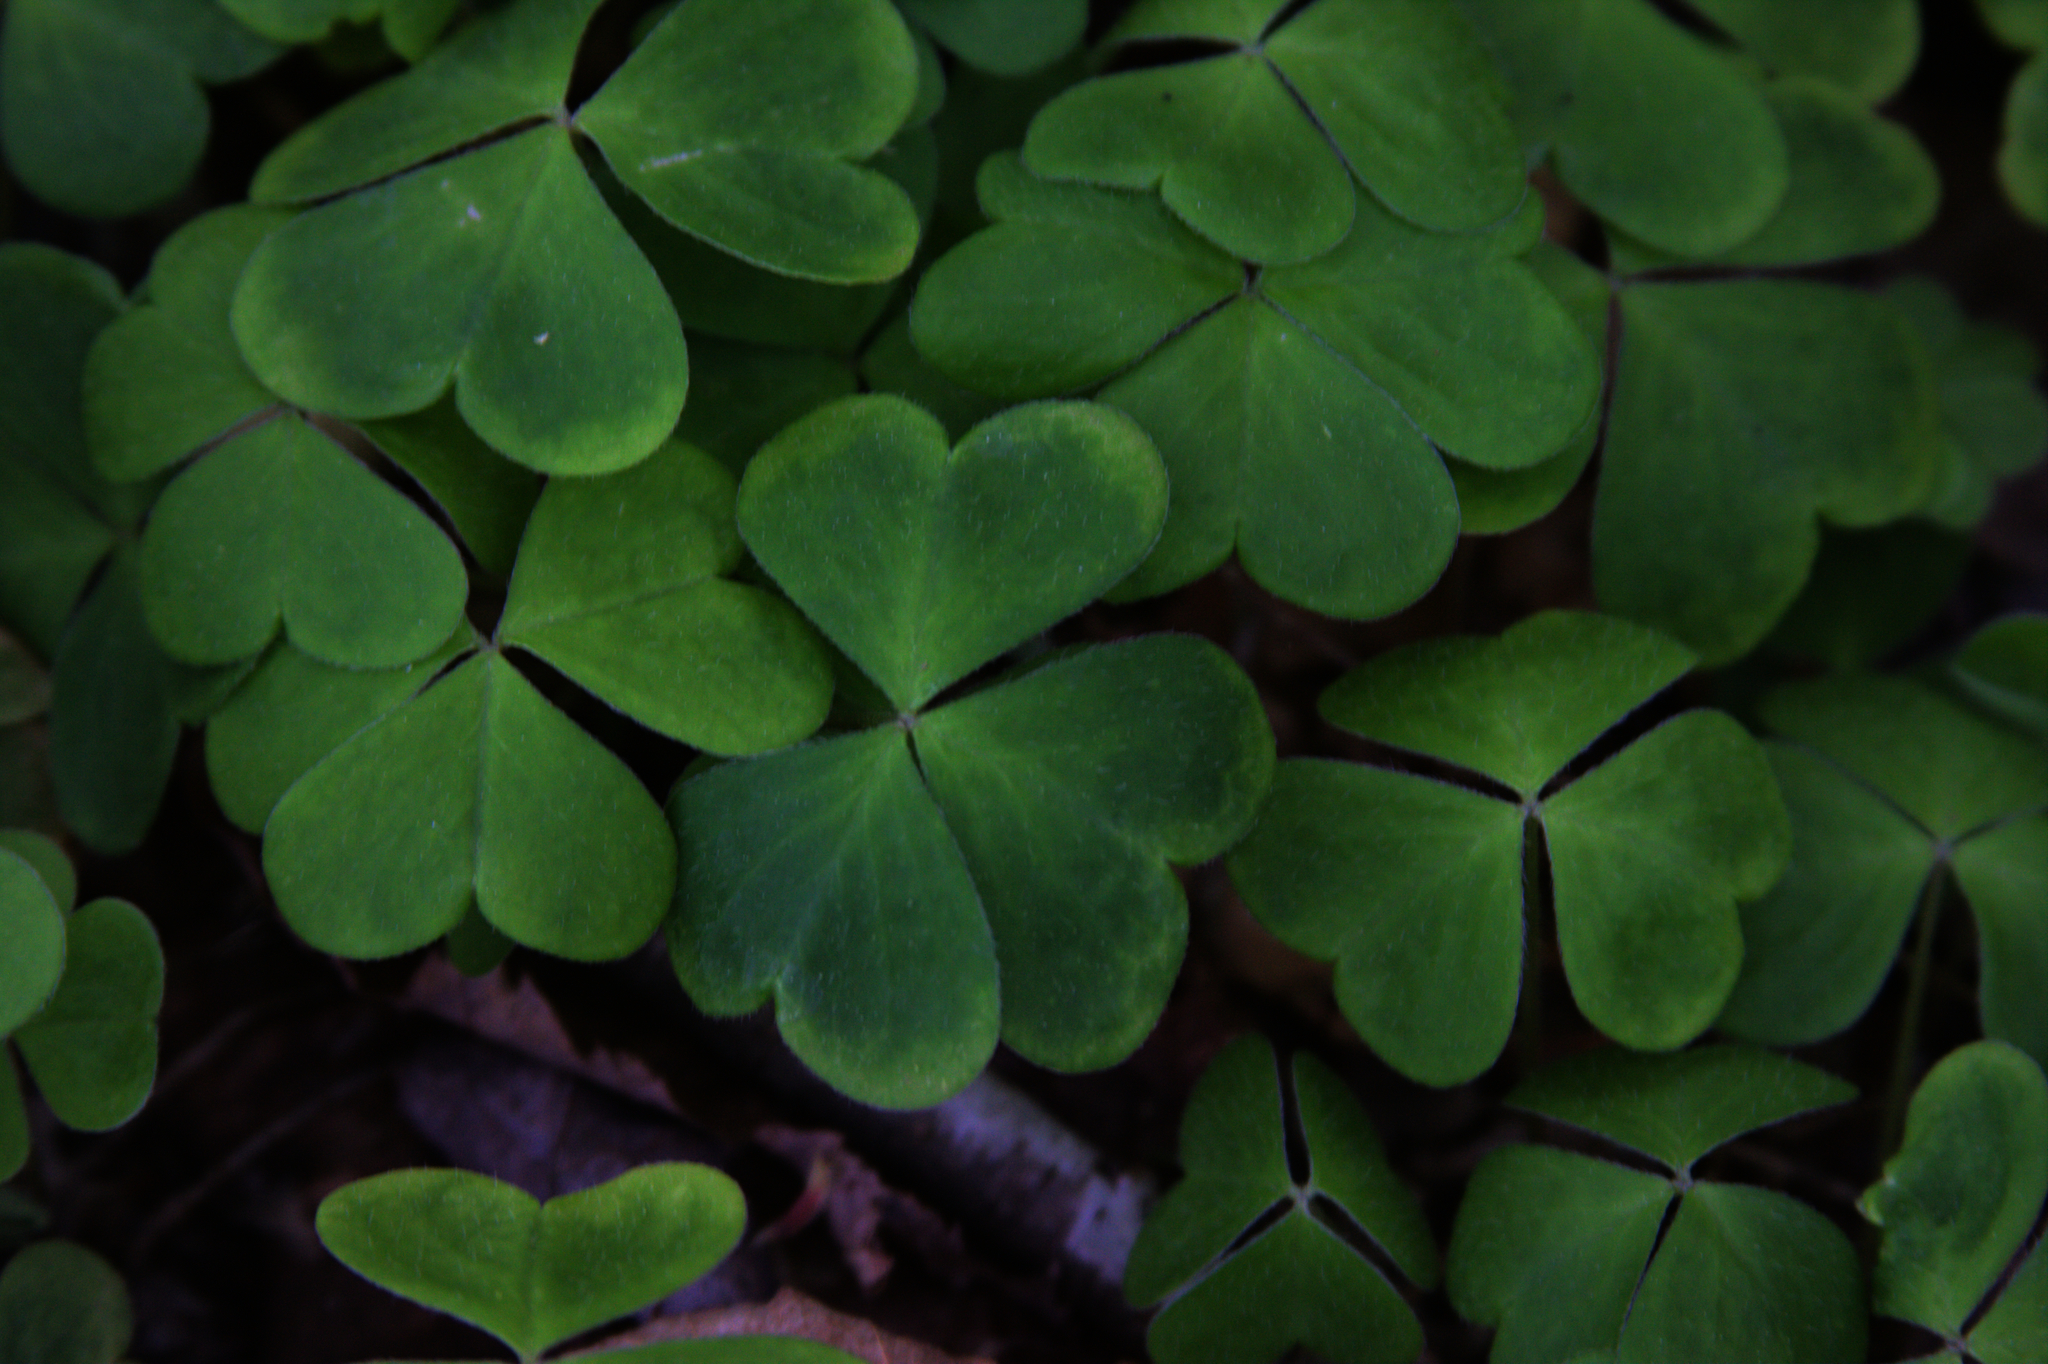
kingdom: Plantae
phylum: Tracheophyta
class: Magnoliopsida
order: Oxalidales
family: Oxalidaceae
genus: Oxalis
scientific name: Oxalis montana
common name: American wood-sorrel
